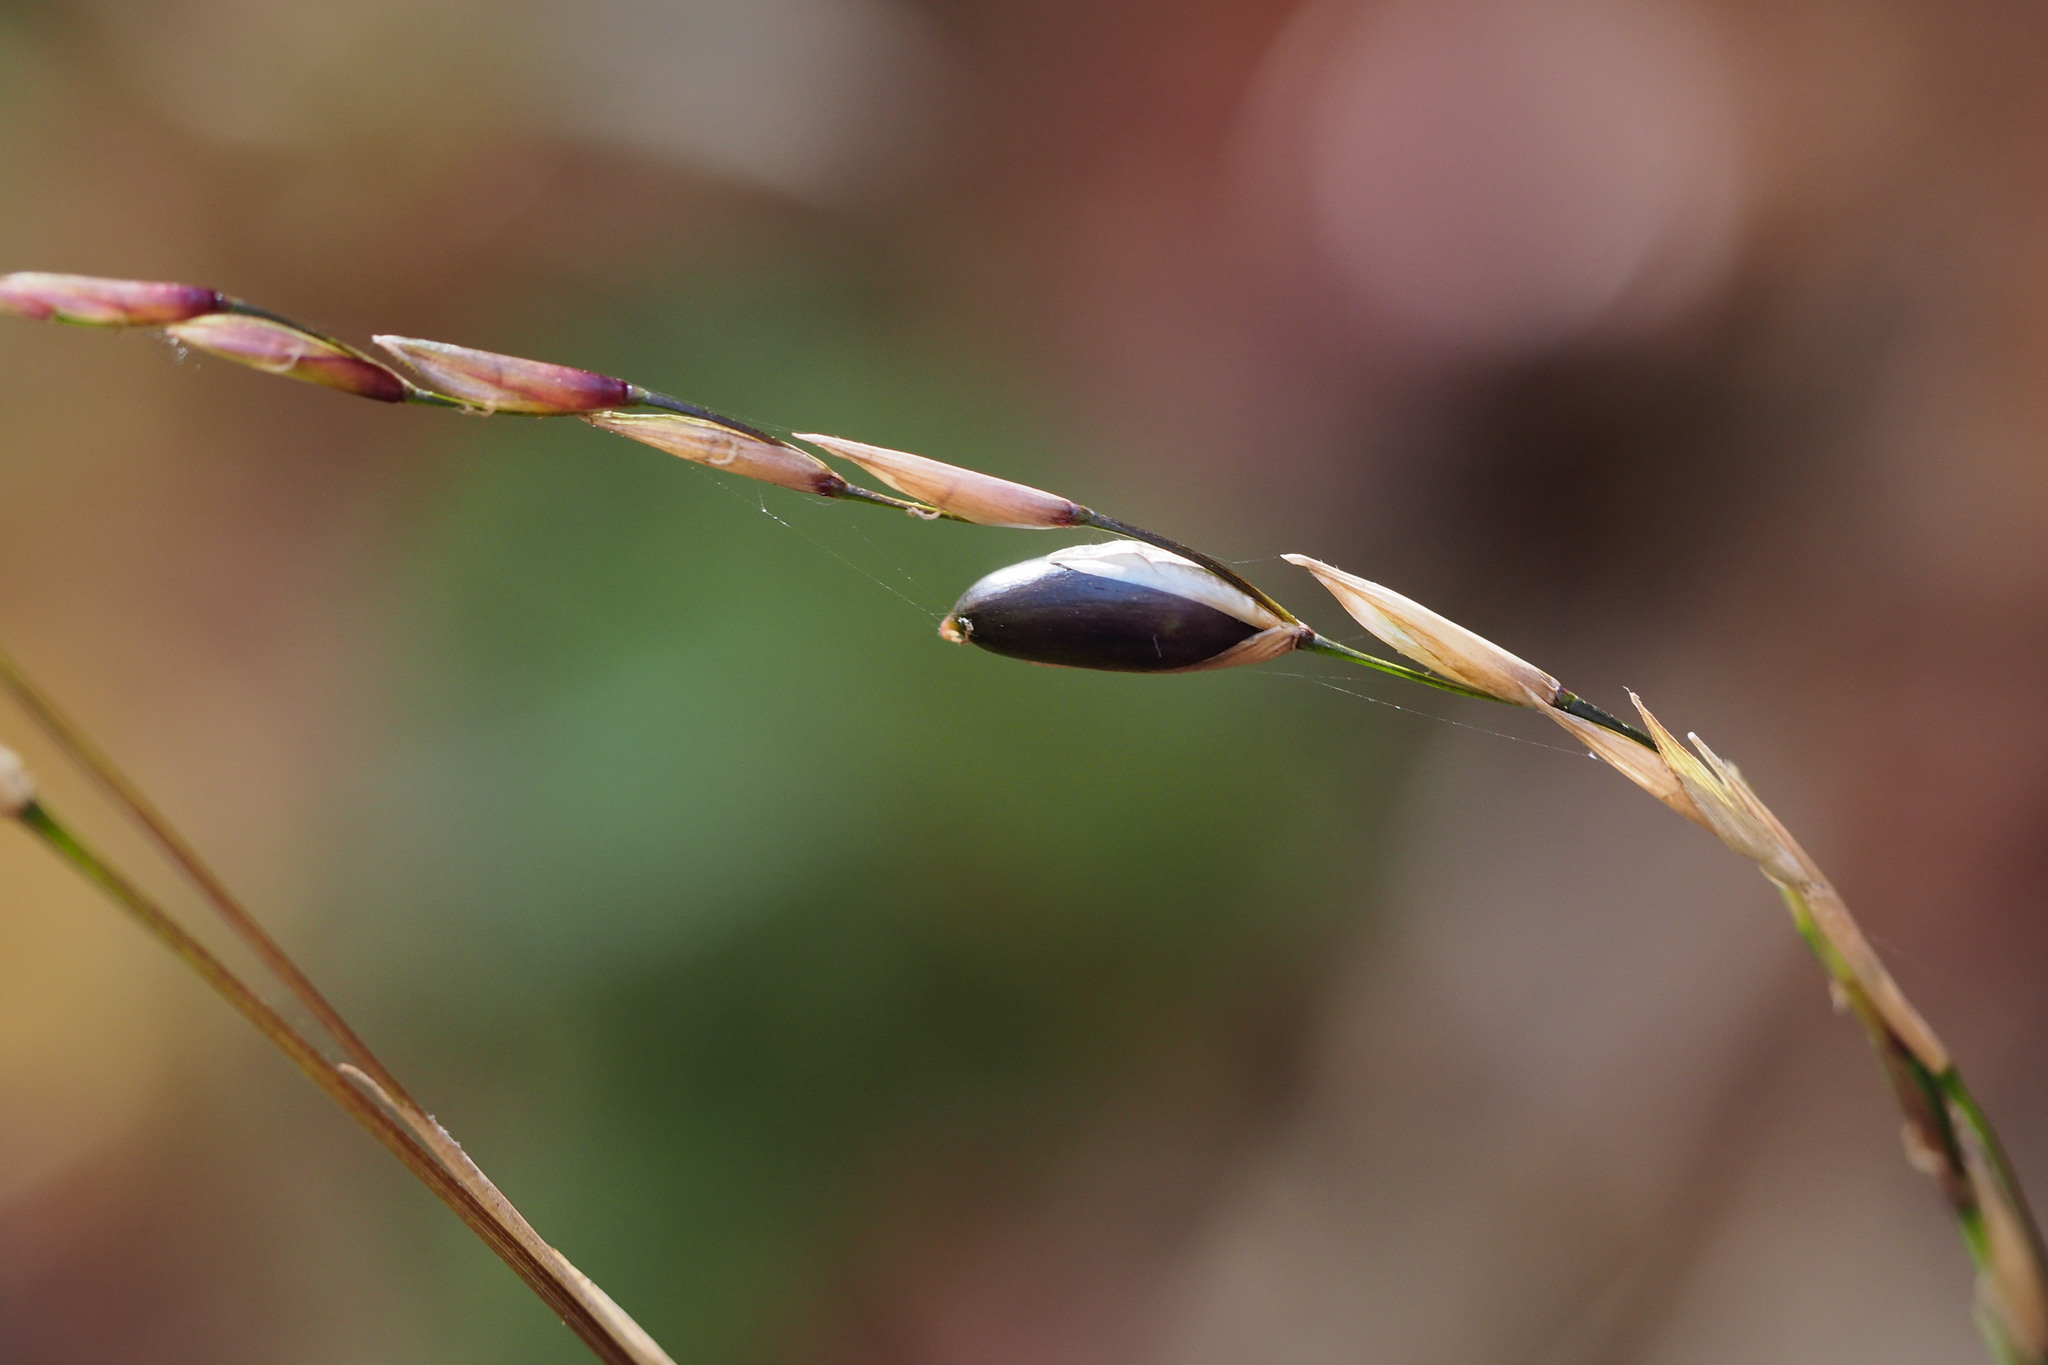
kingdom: Plantae
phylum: Tracheophyta
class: Liliopsida
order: Poales
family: Poaceae
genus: Chimonobambusa
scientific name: Chimonobambusa marmorea
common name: Marbled bamboo
